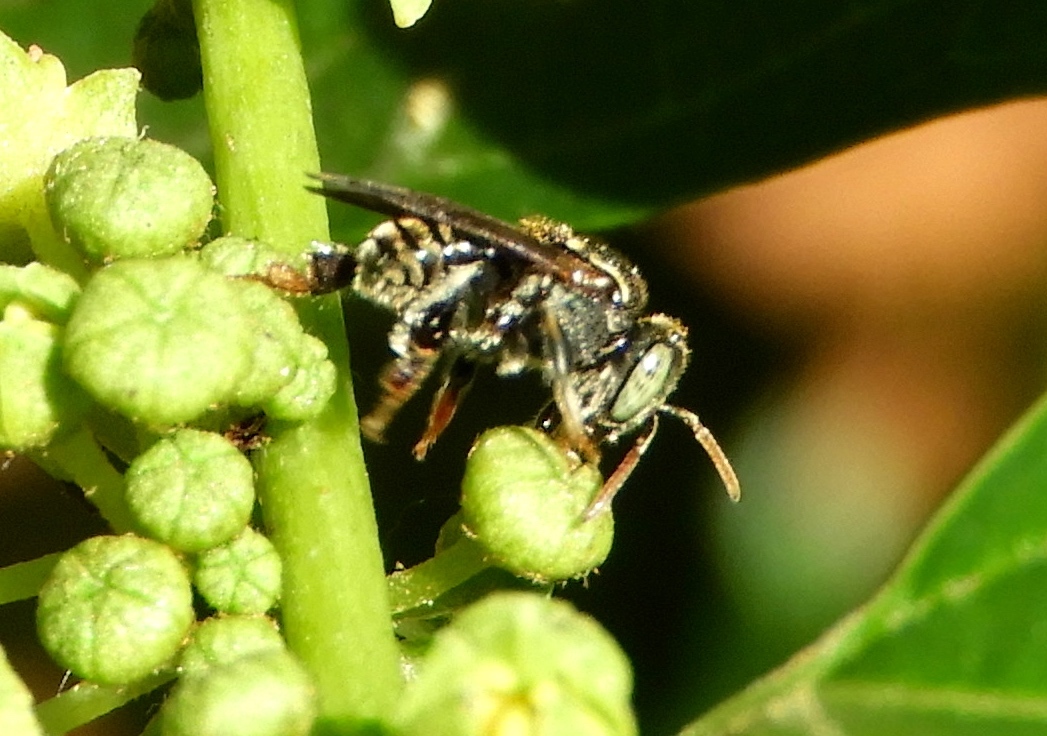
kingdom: Animalia
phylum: Arthropoda
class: Insecta
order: Hymenoptera
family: Apidae
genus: Nannotrigona
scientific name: Nannotrigona perilampoides
